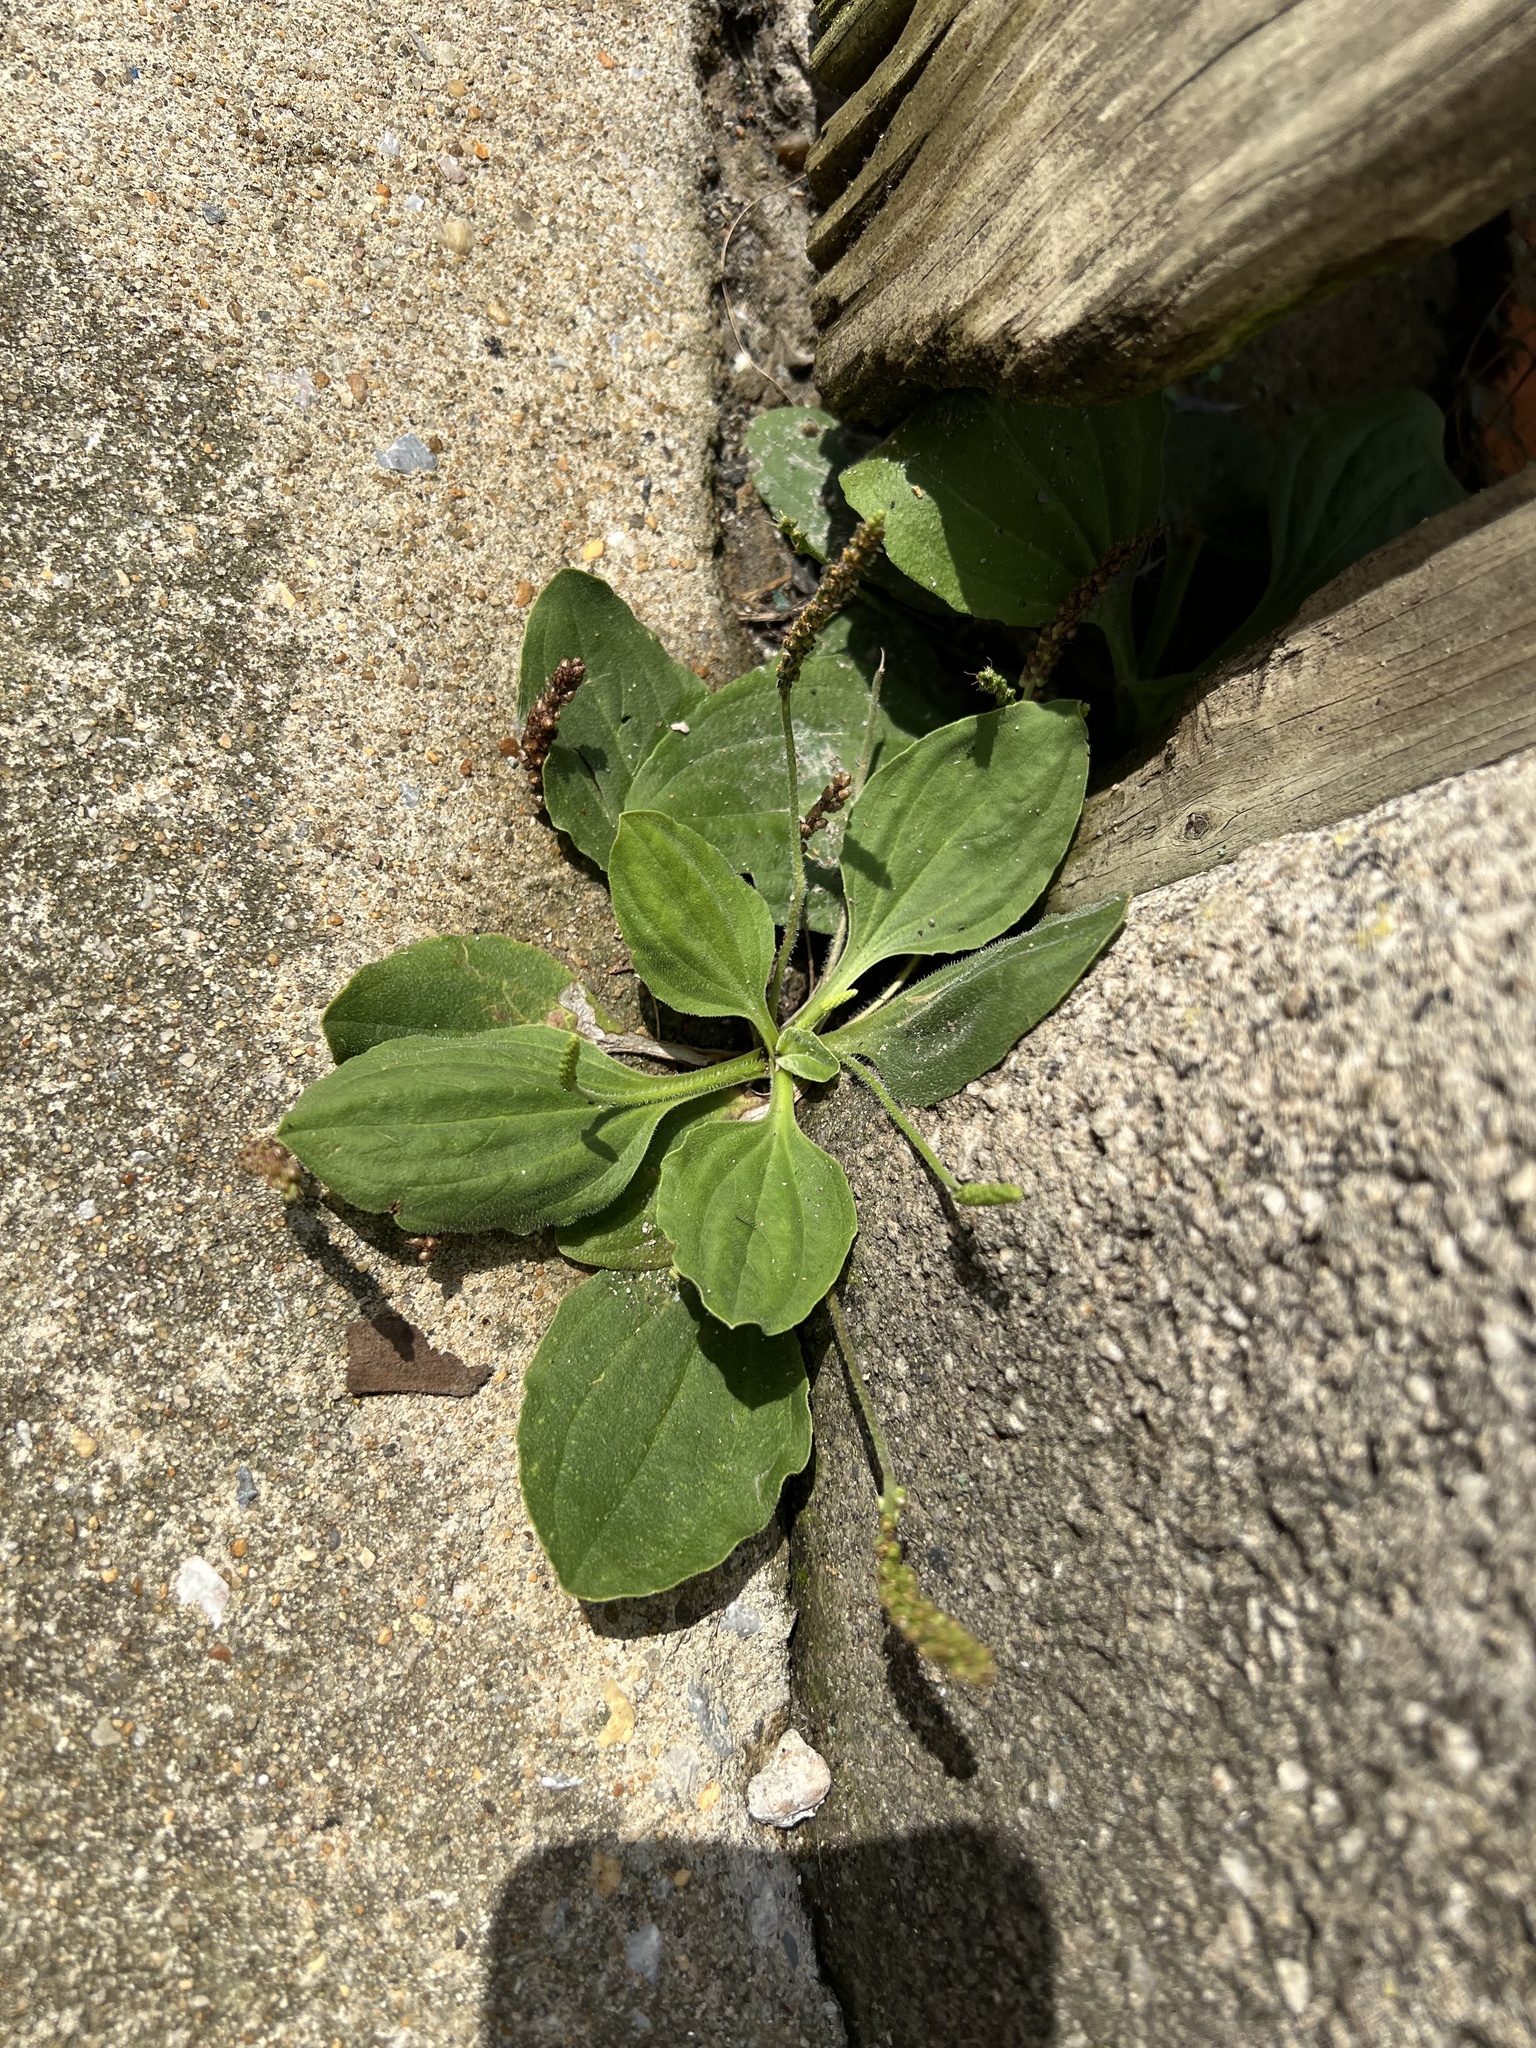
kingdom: Plantae
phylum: Tracheophyta
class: Magnoliopsida
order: Lamiales
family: Plantaginaceae
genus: Plantago
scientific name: Plantago major
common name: Common plantain
